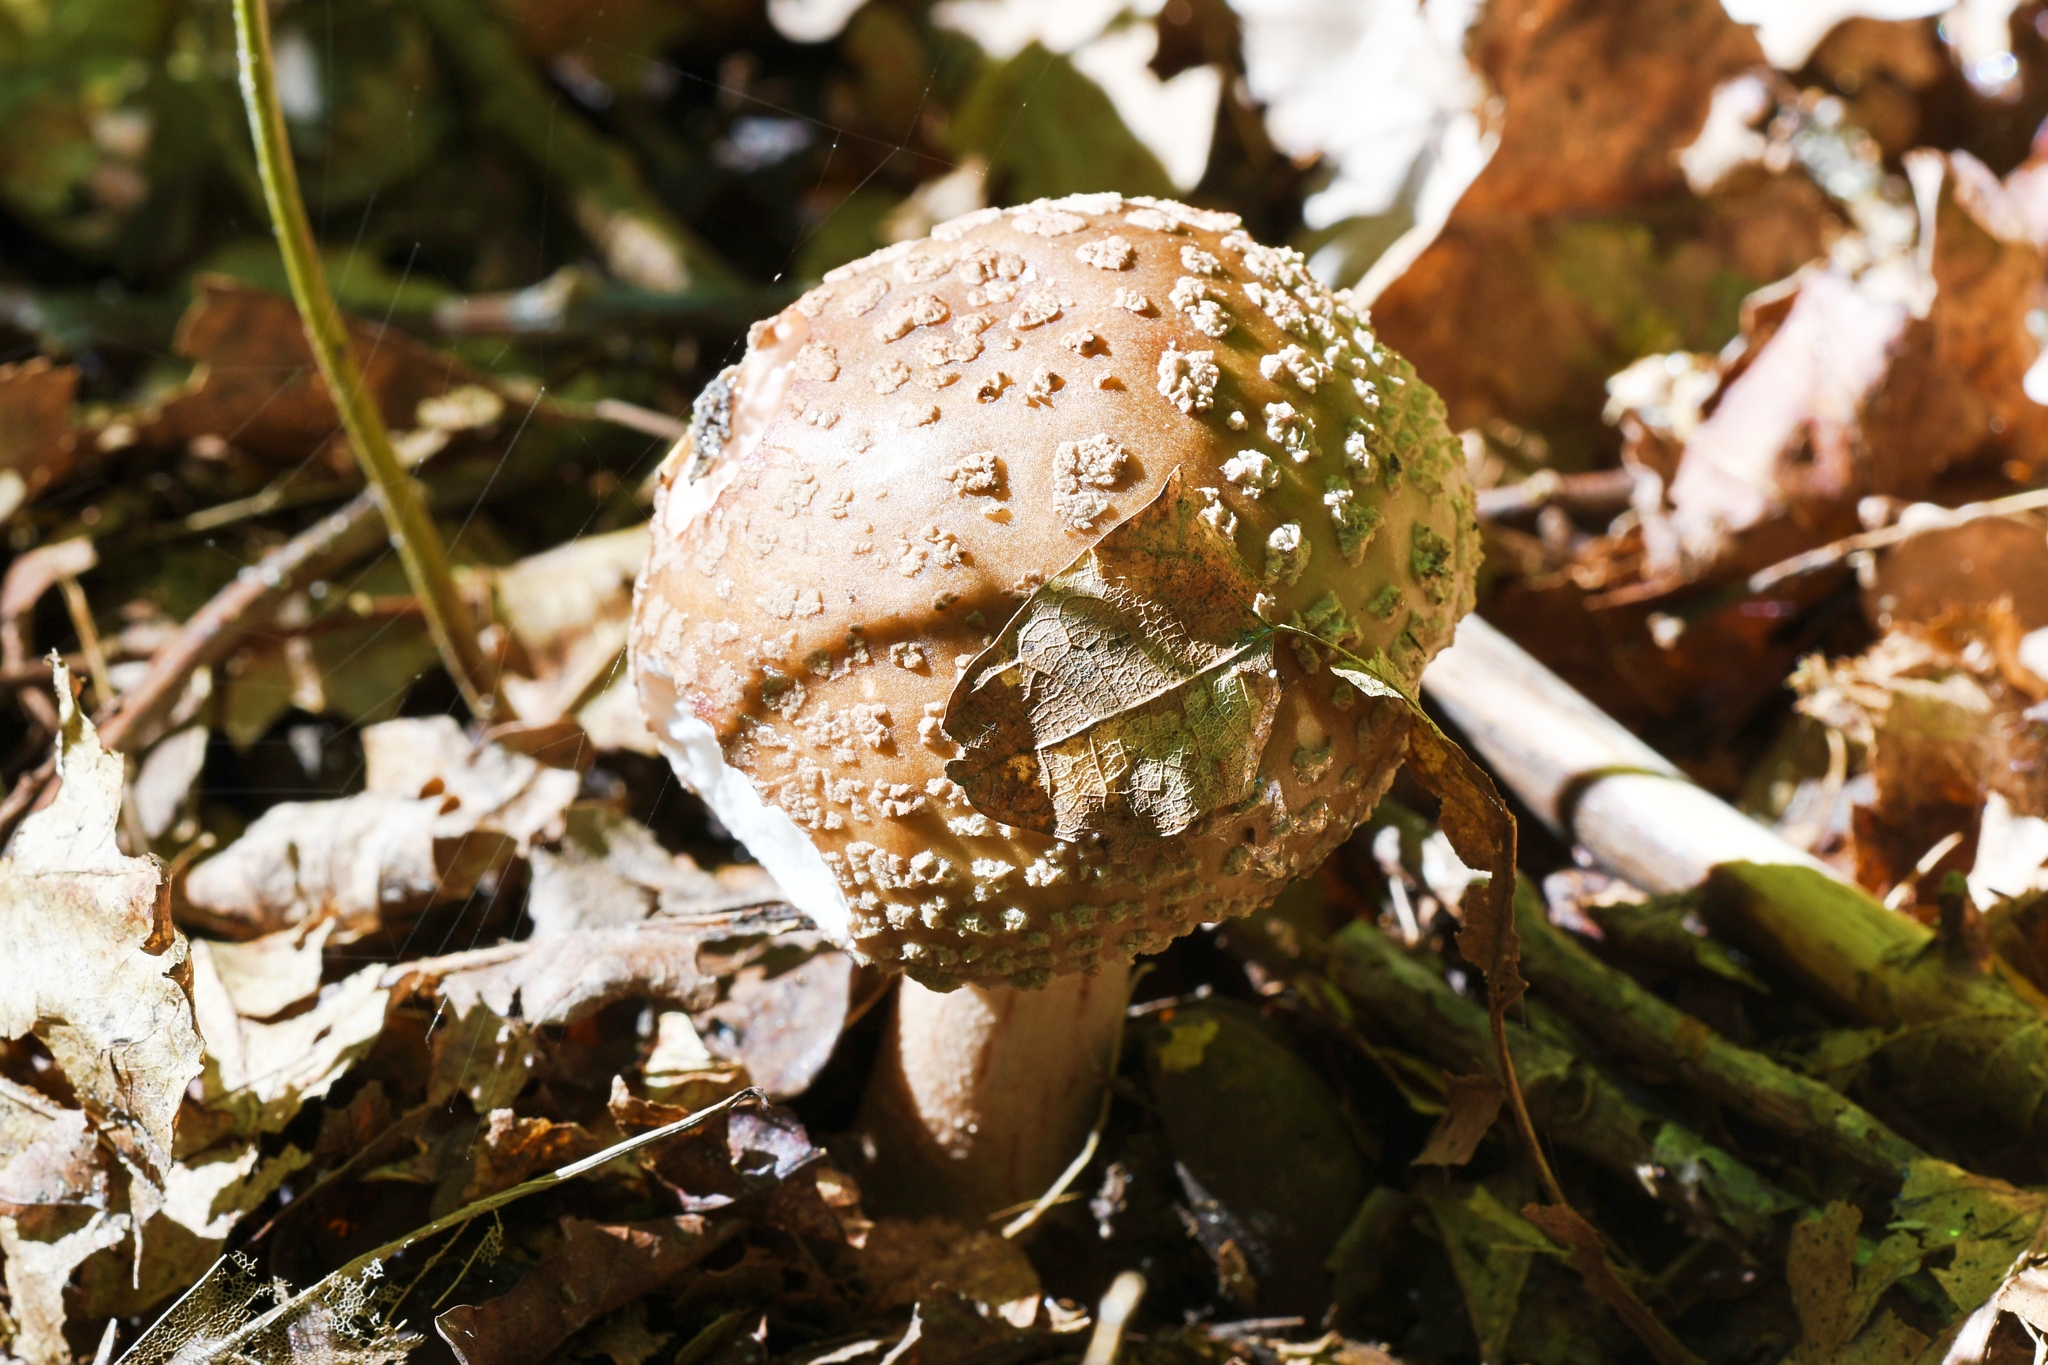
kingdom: Fungi
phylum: Basidiomycota
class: Agaricomycetes
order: Agaricales
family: Amanitaceae
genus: Amanita
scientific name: Amanita rubescens
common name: Blusher
